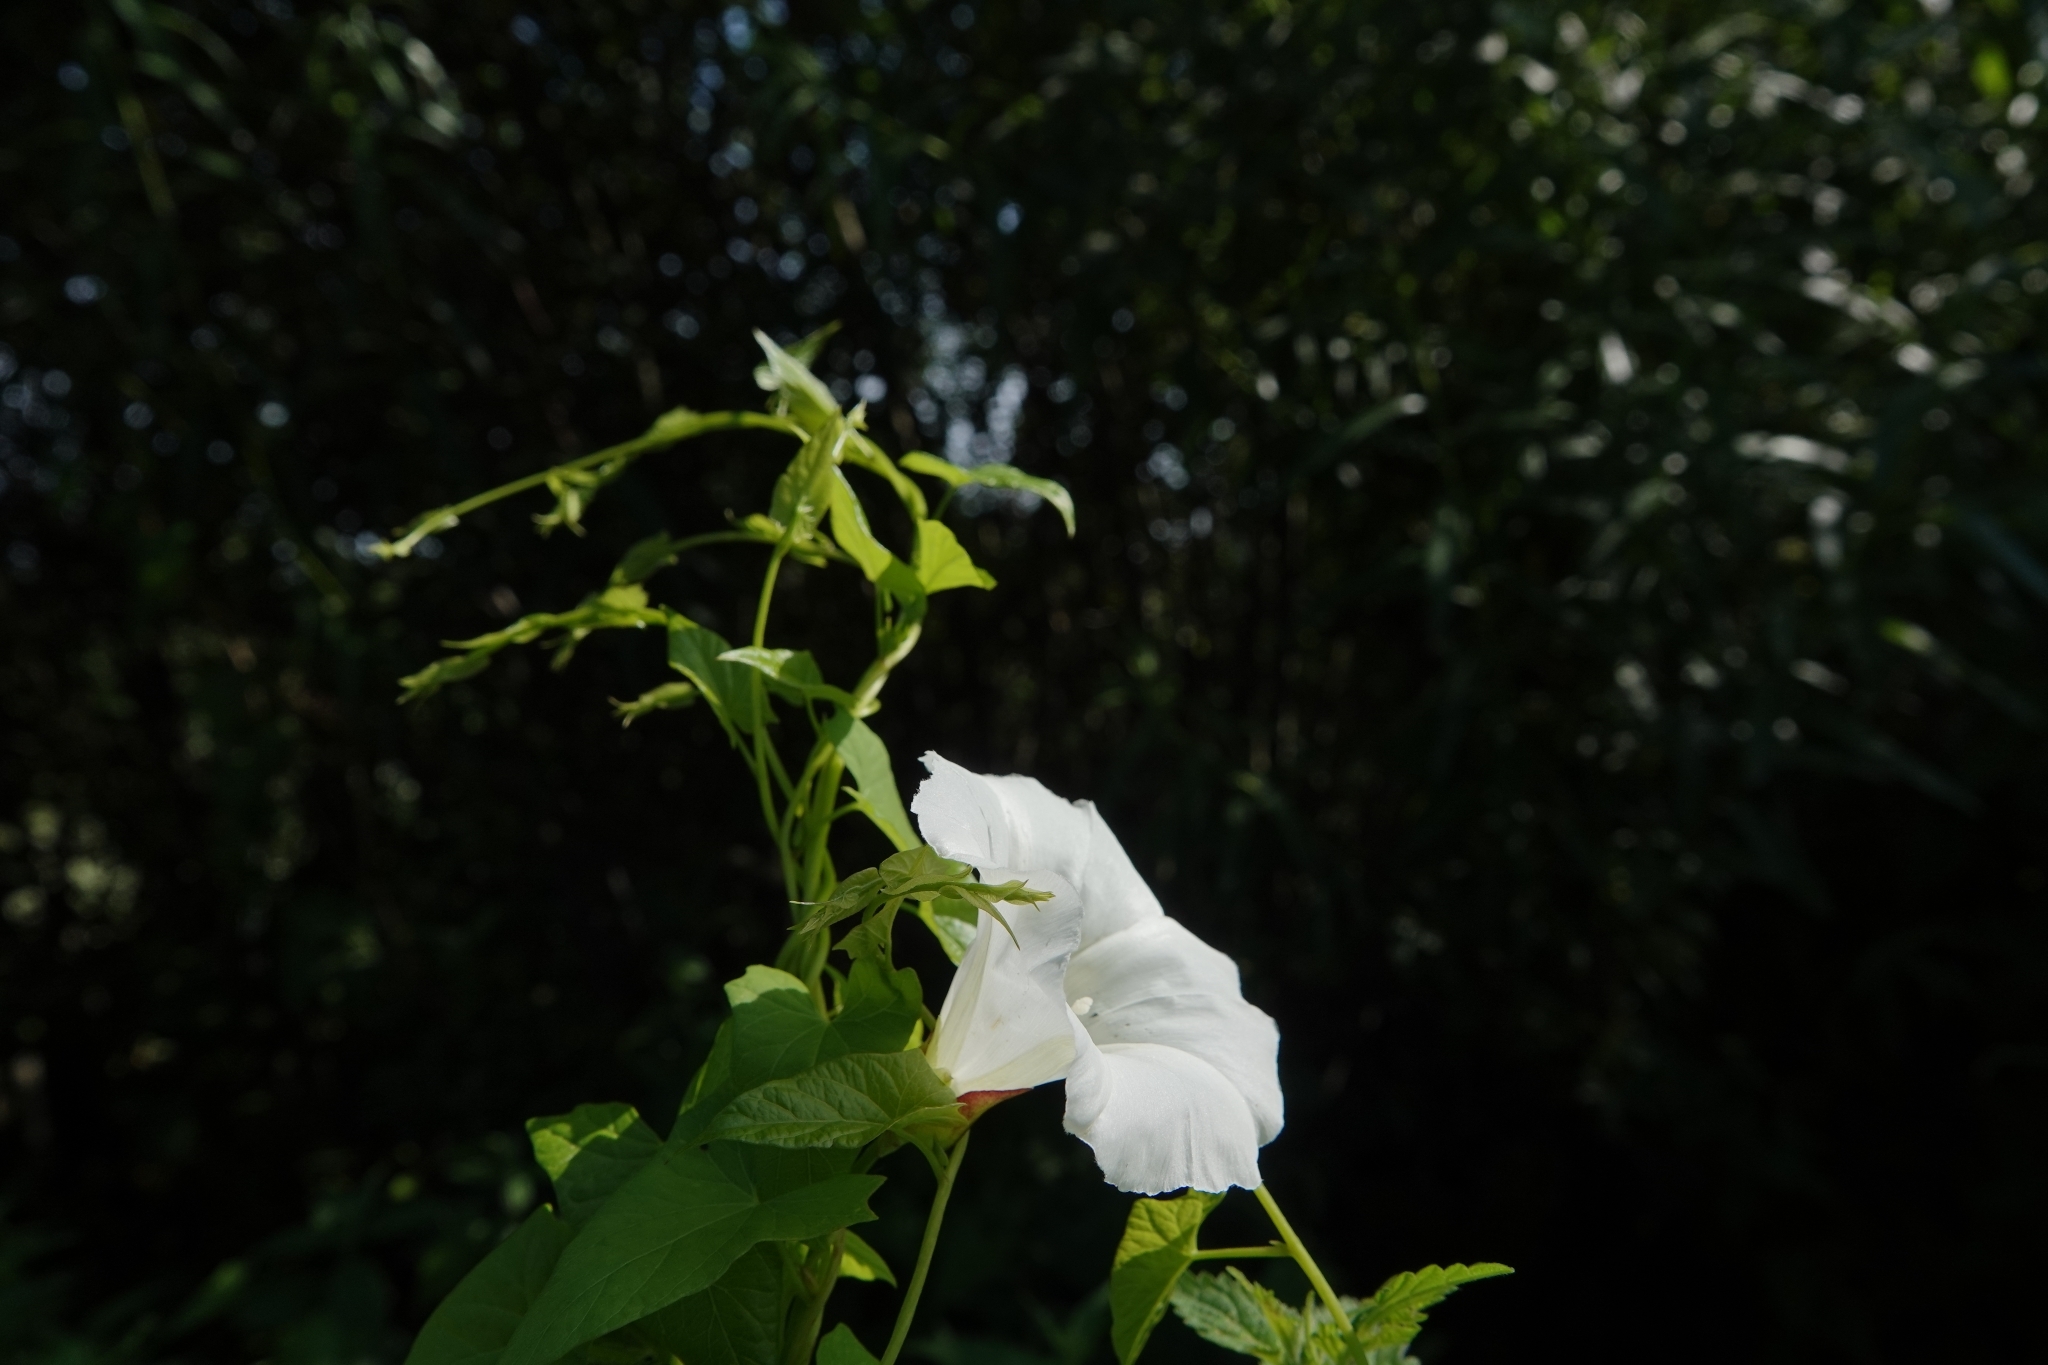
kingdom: Plantae
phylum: Tracheophyta
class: Magnoliopsida
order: Solanales
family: Convolvulaceae
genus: Calystegia
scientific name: Calystegia sepium
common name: Hedge bindweed
